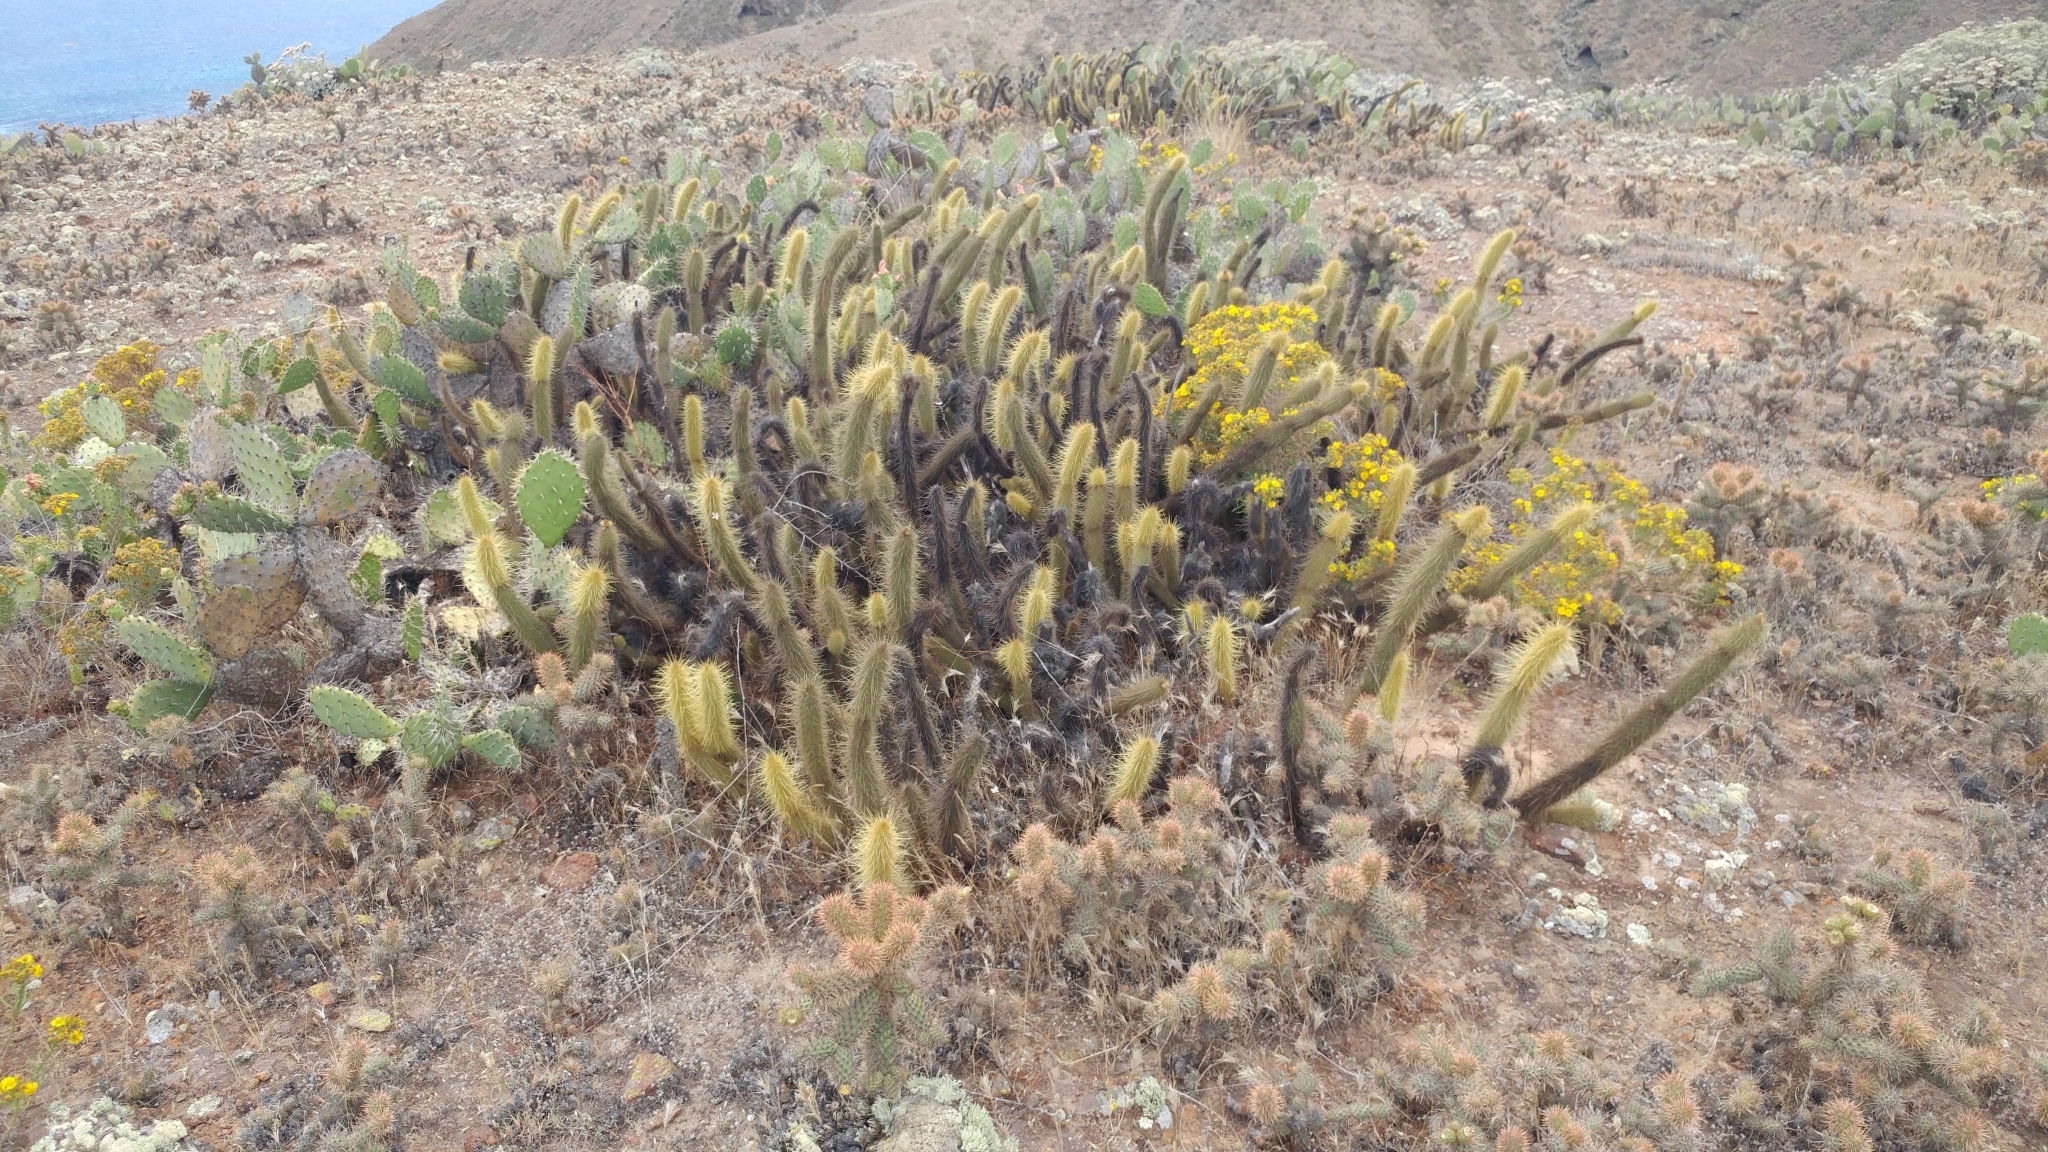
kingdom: Plantae
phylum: Tracheophyta
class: Magnoliopsida
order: Caryophyllales
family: Cactaceae
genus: Bergerocactus
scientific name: Bergerocactus emoryi
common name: Golden snakecactus
